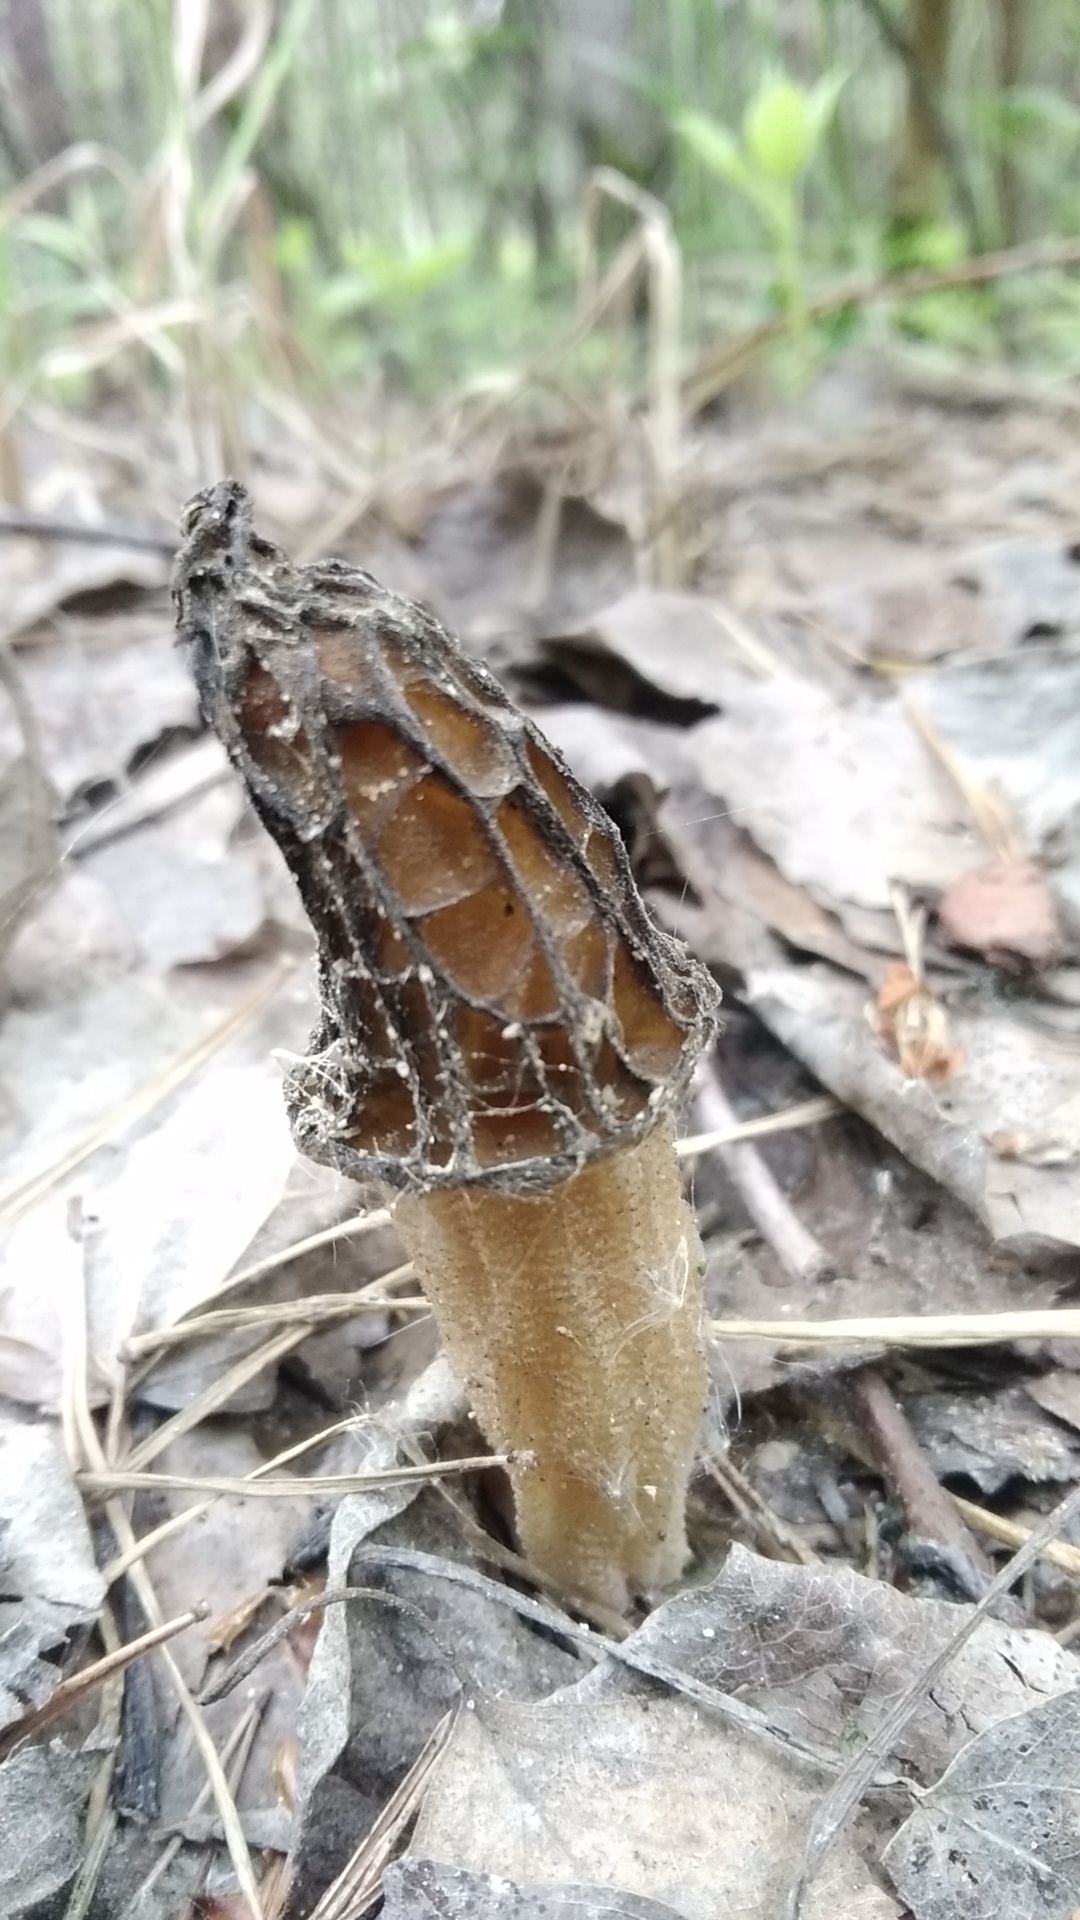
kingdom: Fungi
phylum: Ascomycota
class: Pezizomycetes
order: Pezizales
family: Morchellaceae
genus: Morchella
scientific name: Morchella
